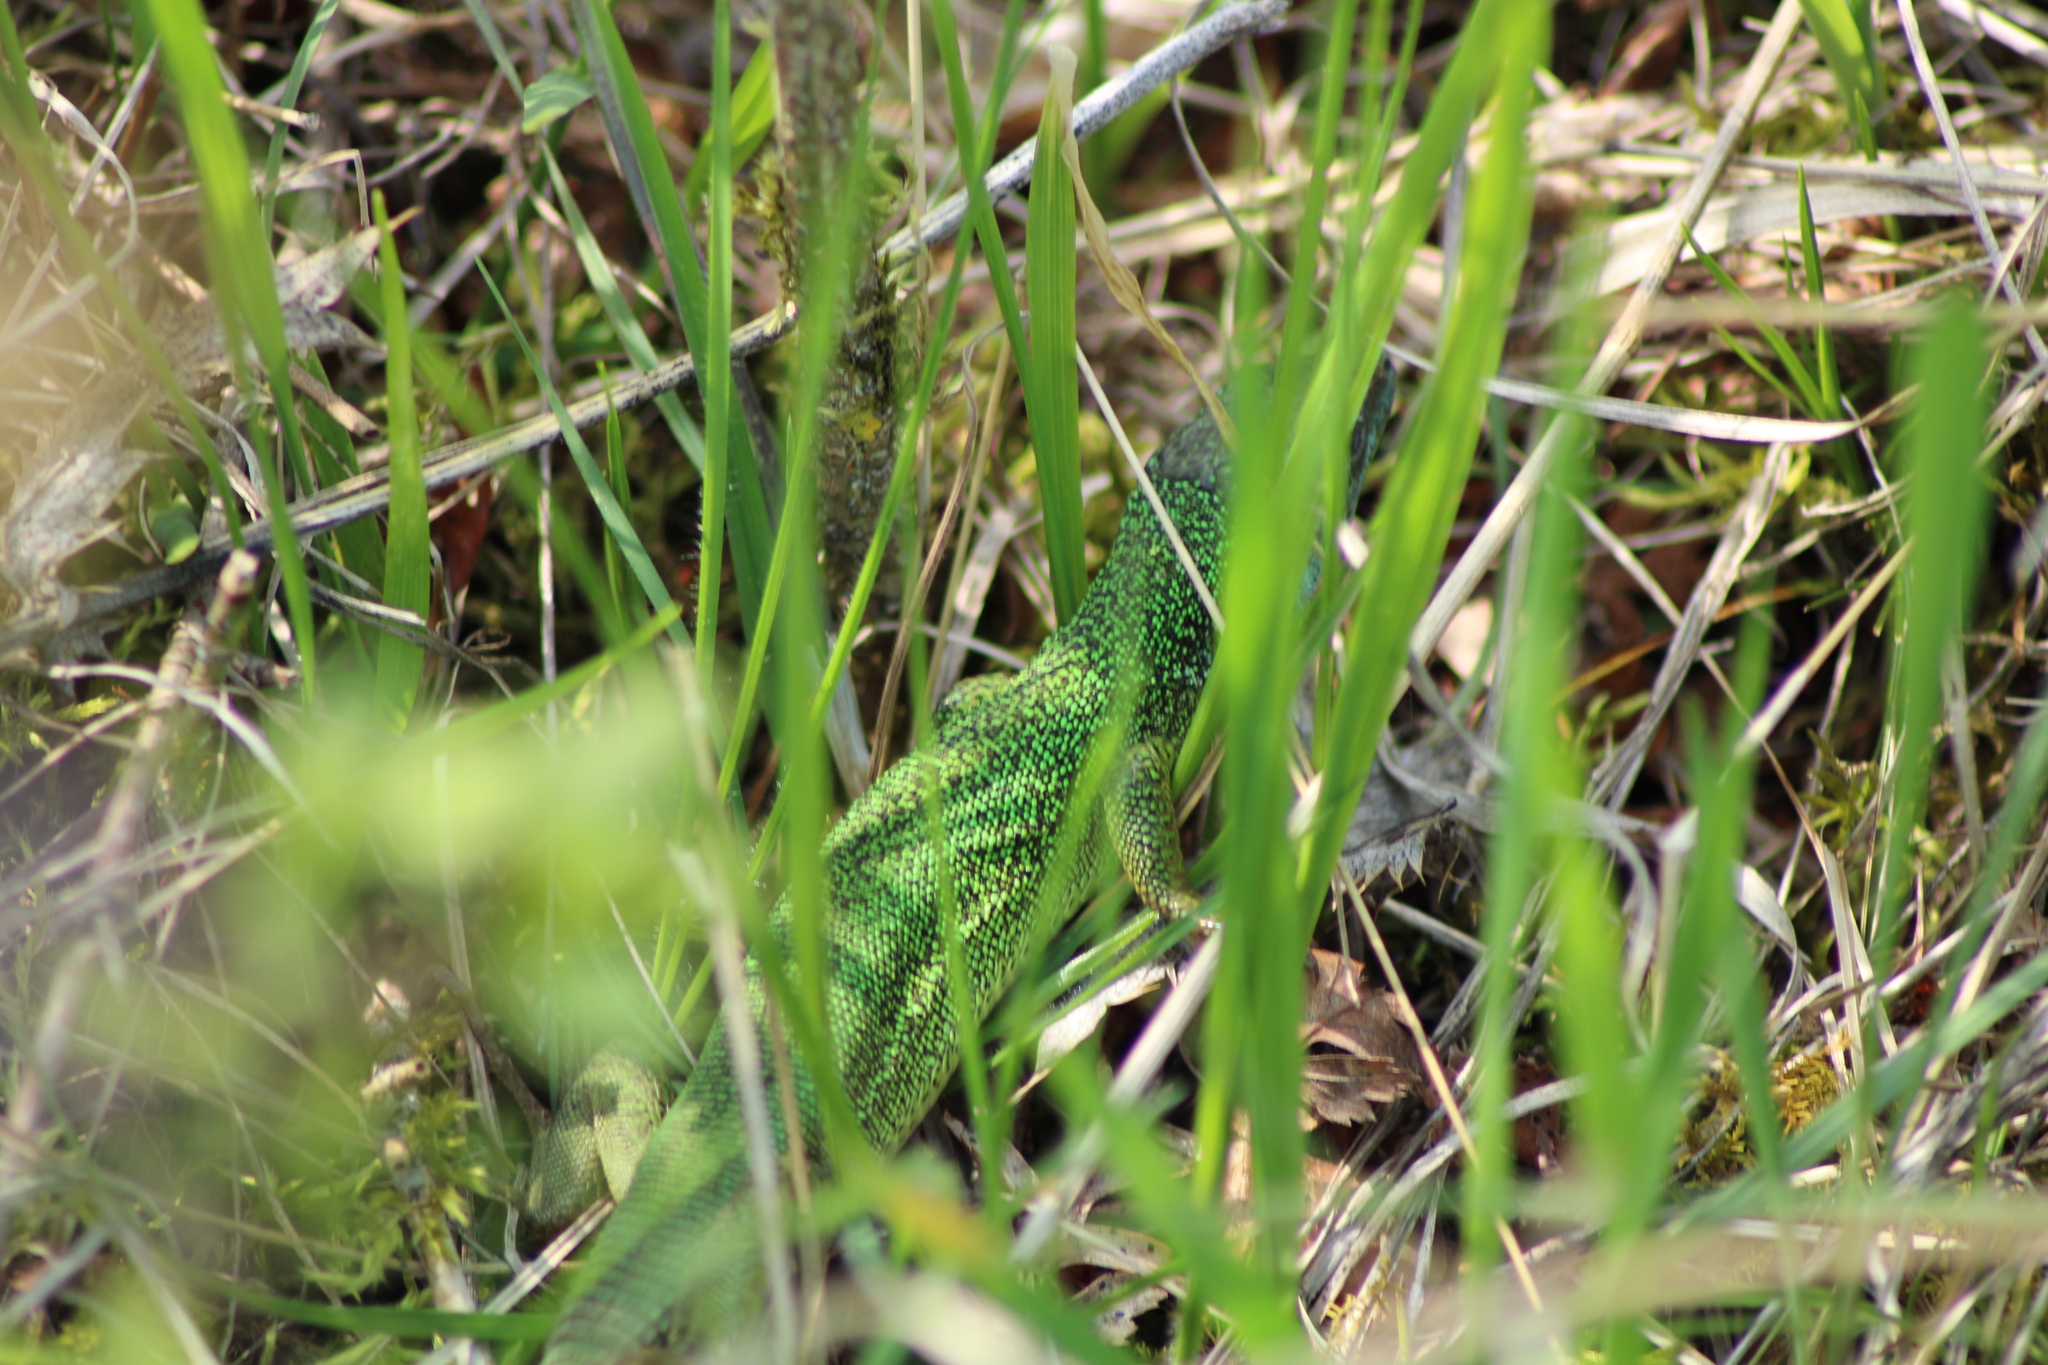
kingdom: Animalia
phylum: Chordata
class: Squamata
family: Lacertidae
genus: Lacerta
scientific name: Lacerta viridis
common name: European green lizard
